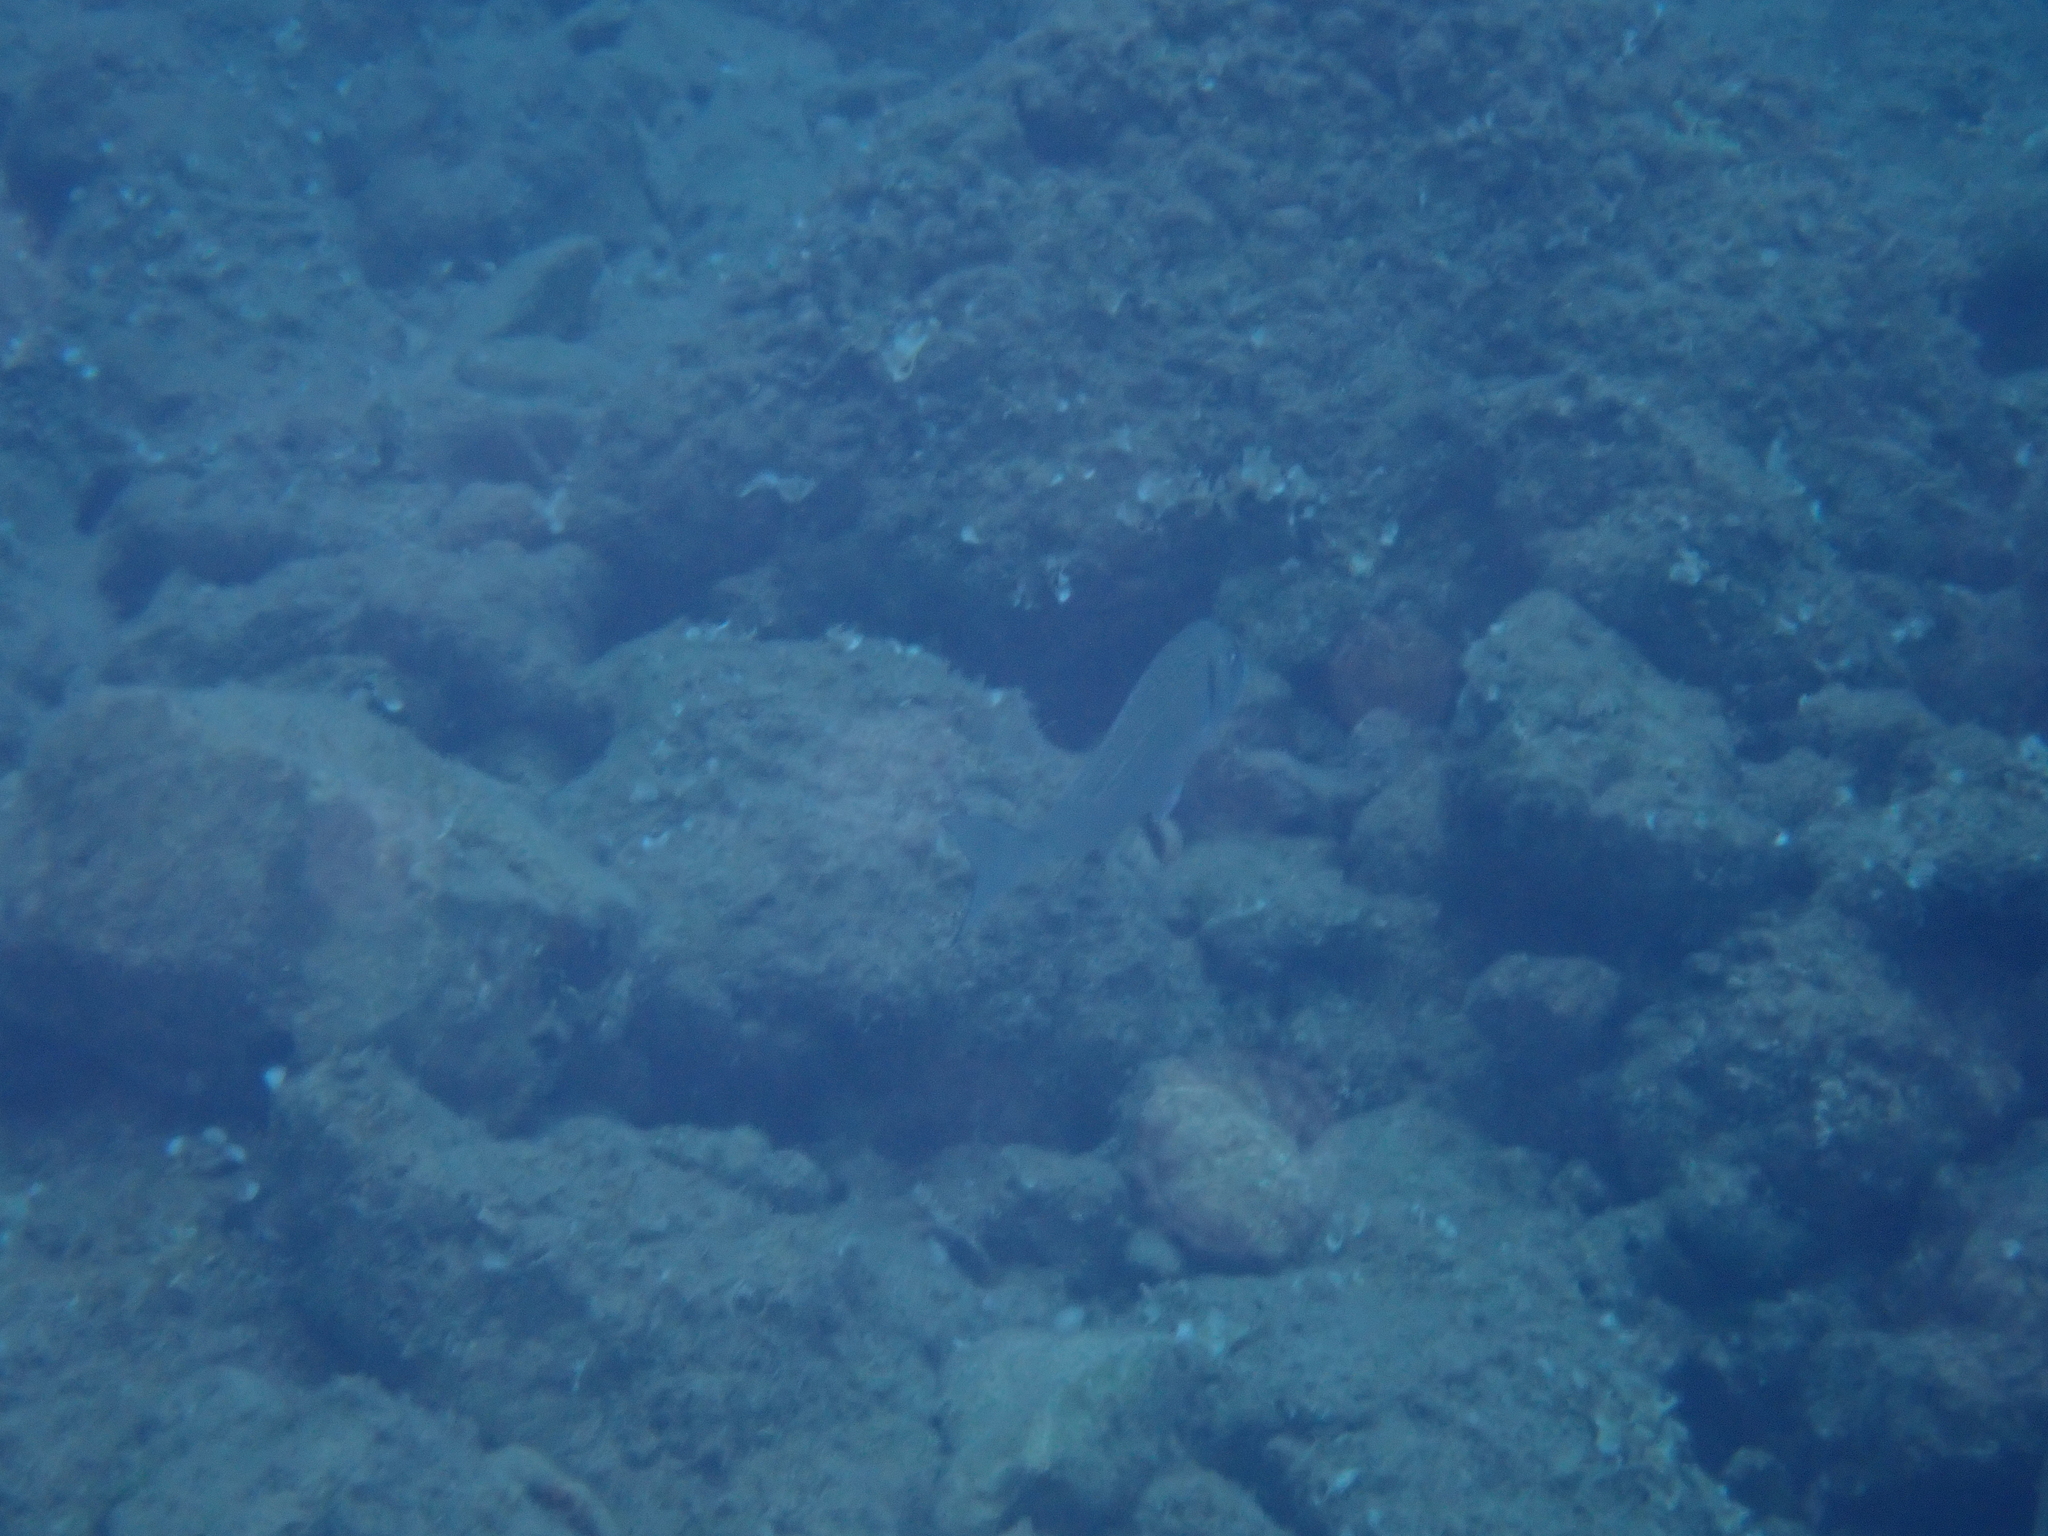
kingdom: Animalia
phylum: Chordata
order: Perciformes
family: Sparidae
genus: Sparus
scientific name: Sparus aurata
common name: Gilthead
